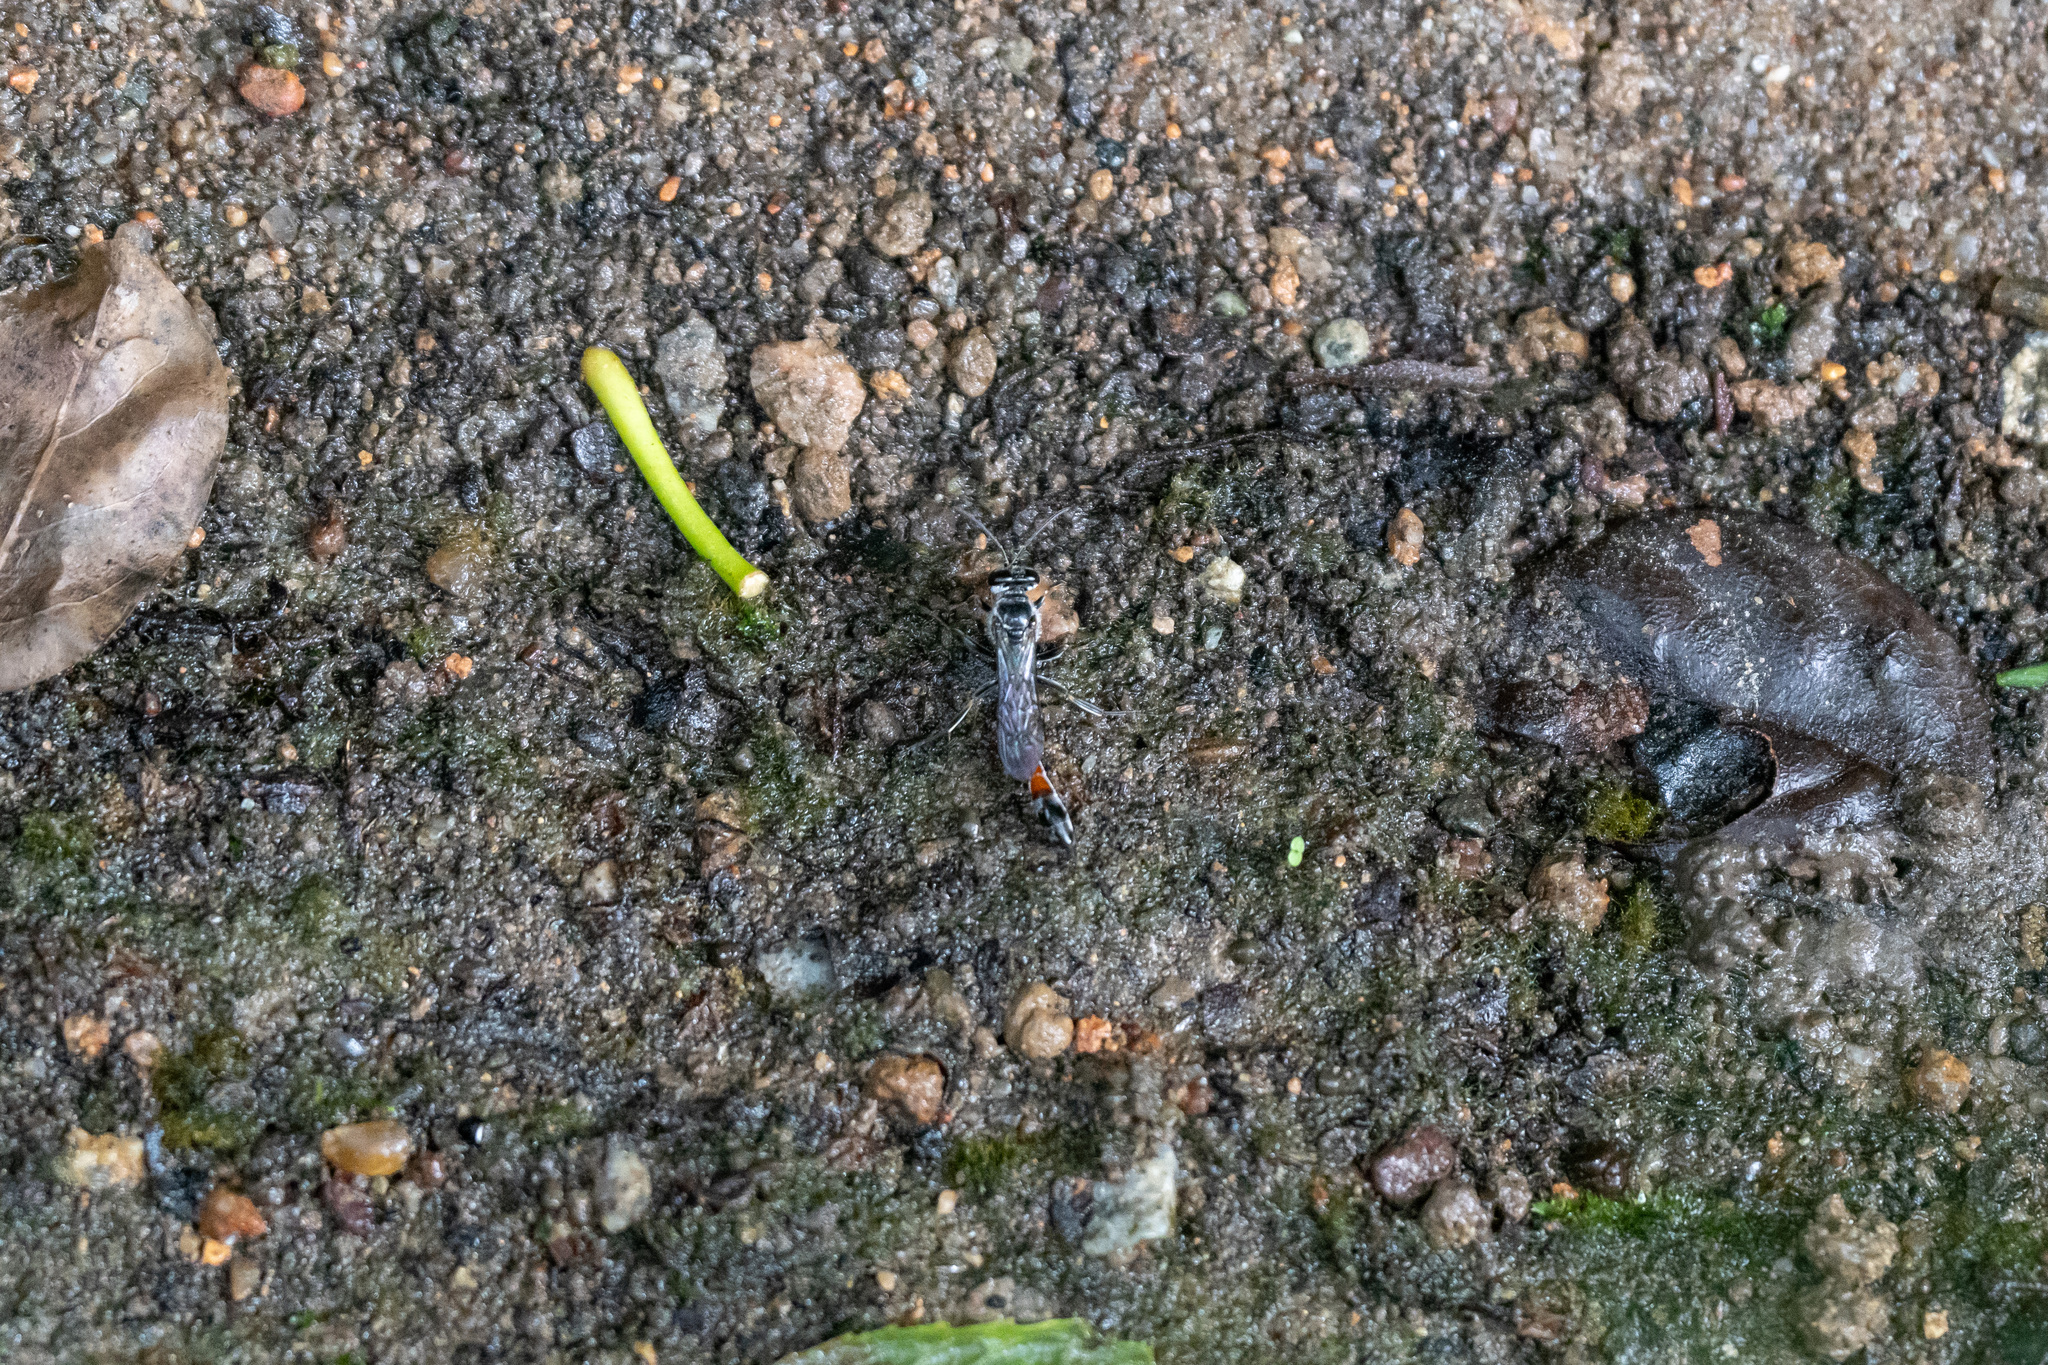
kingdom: Animalia
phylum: Arthropoda
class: Insecta
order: Hymenoptera
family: Crabronidae
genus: Trypoxylon
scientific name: Trypoxylon petiolatum
